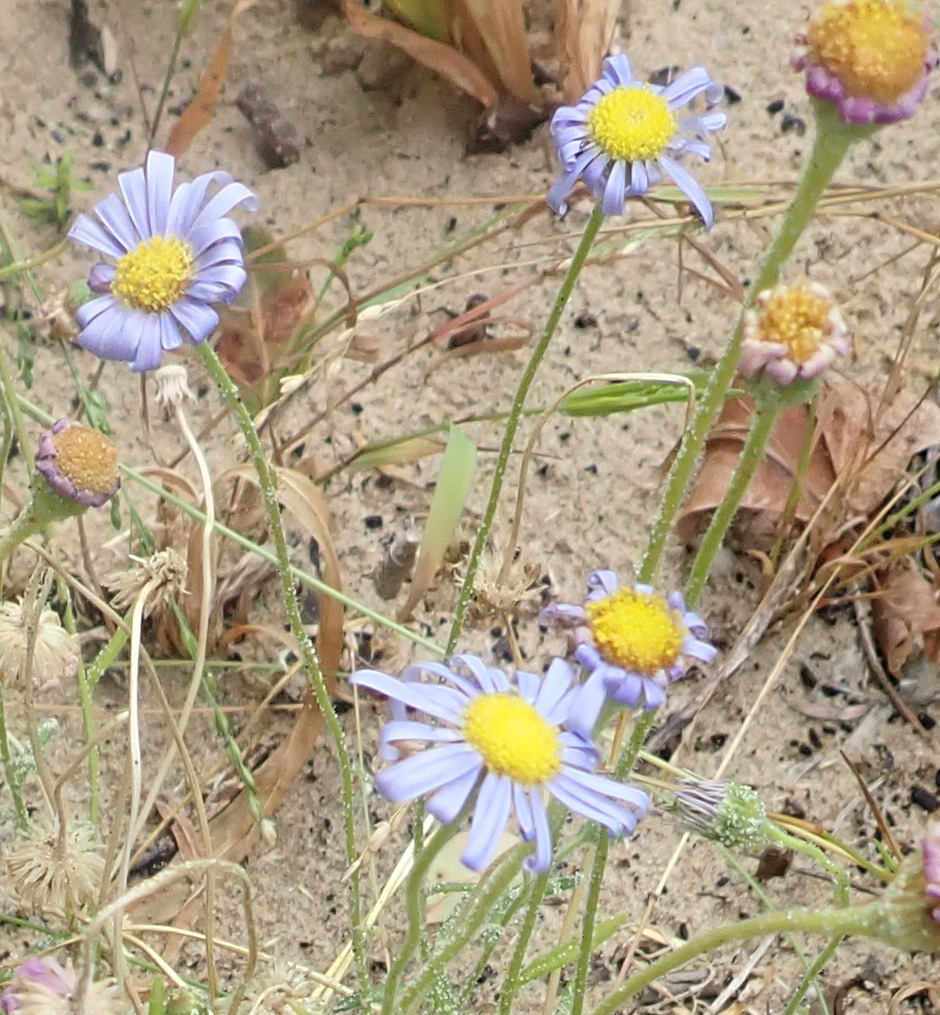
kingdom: Plantae
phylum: Tracheophyta
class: Magnoliopsida
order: Asterales
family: Asteraceae
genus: Felicia
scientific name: Felicia amoena
